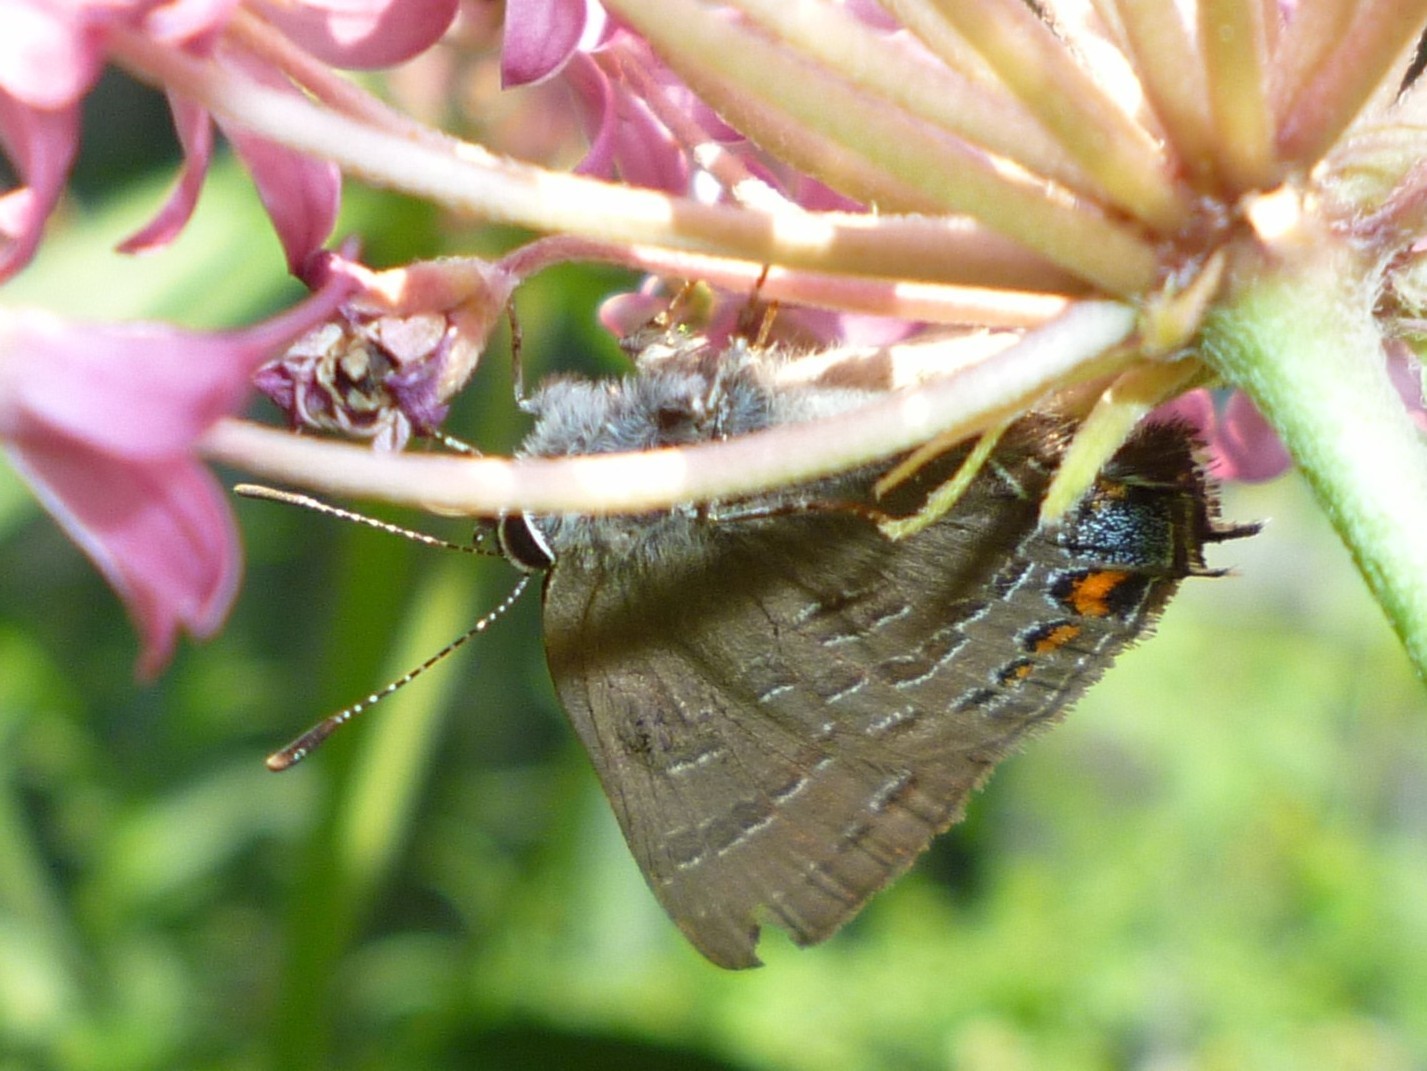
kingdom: Animalia
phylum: Arthropoda
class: Insecta
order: Lepidoptera
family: Lycaenidae
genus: Satyrium
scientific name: Satyrium calanus
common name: Banded hairstreak
